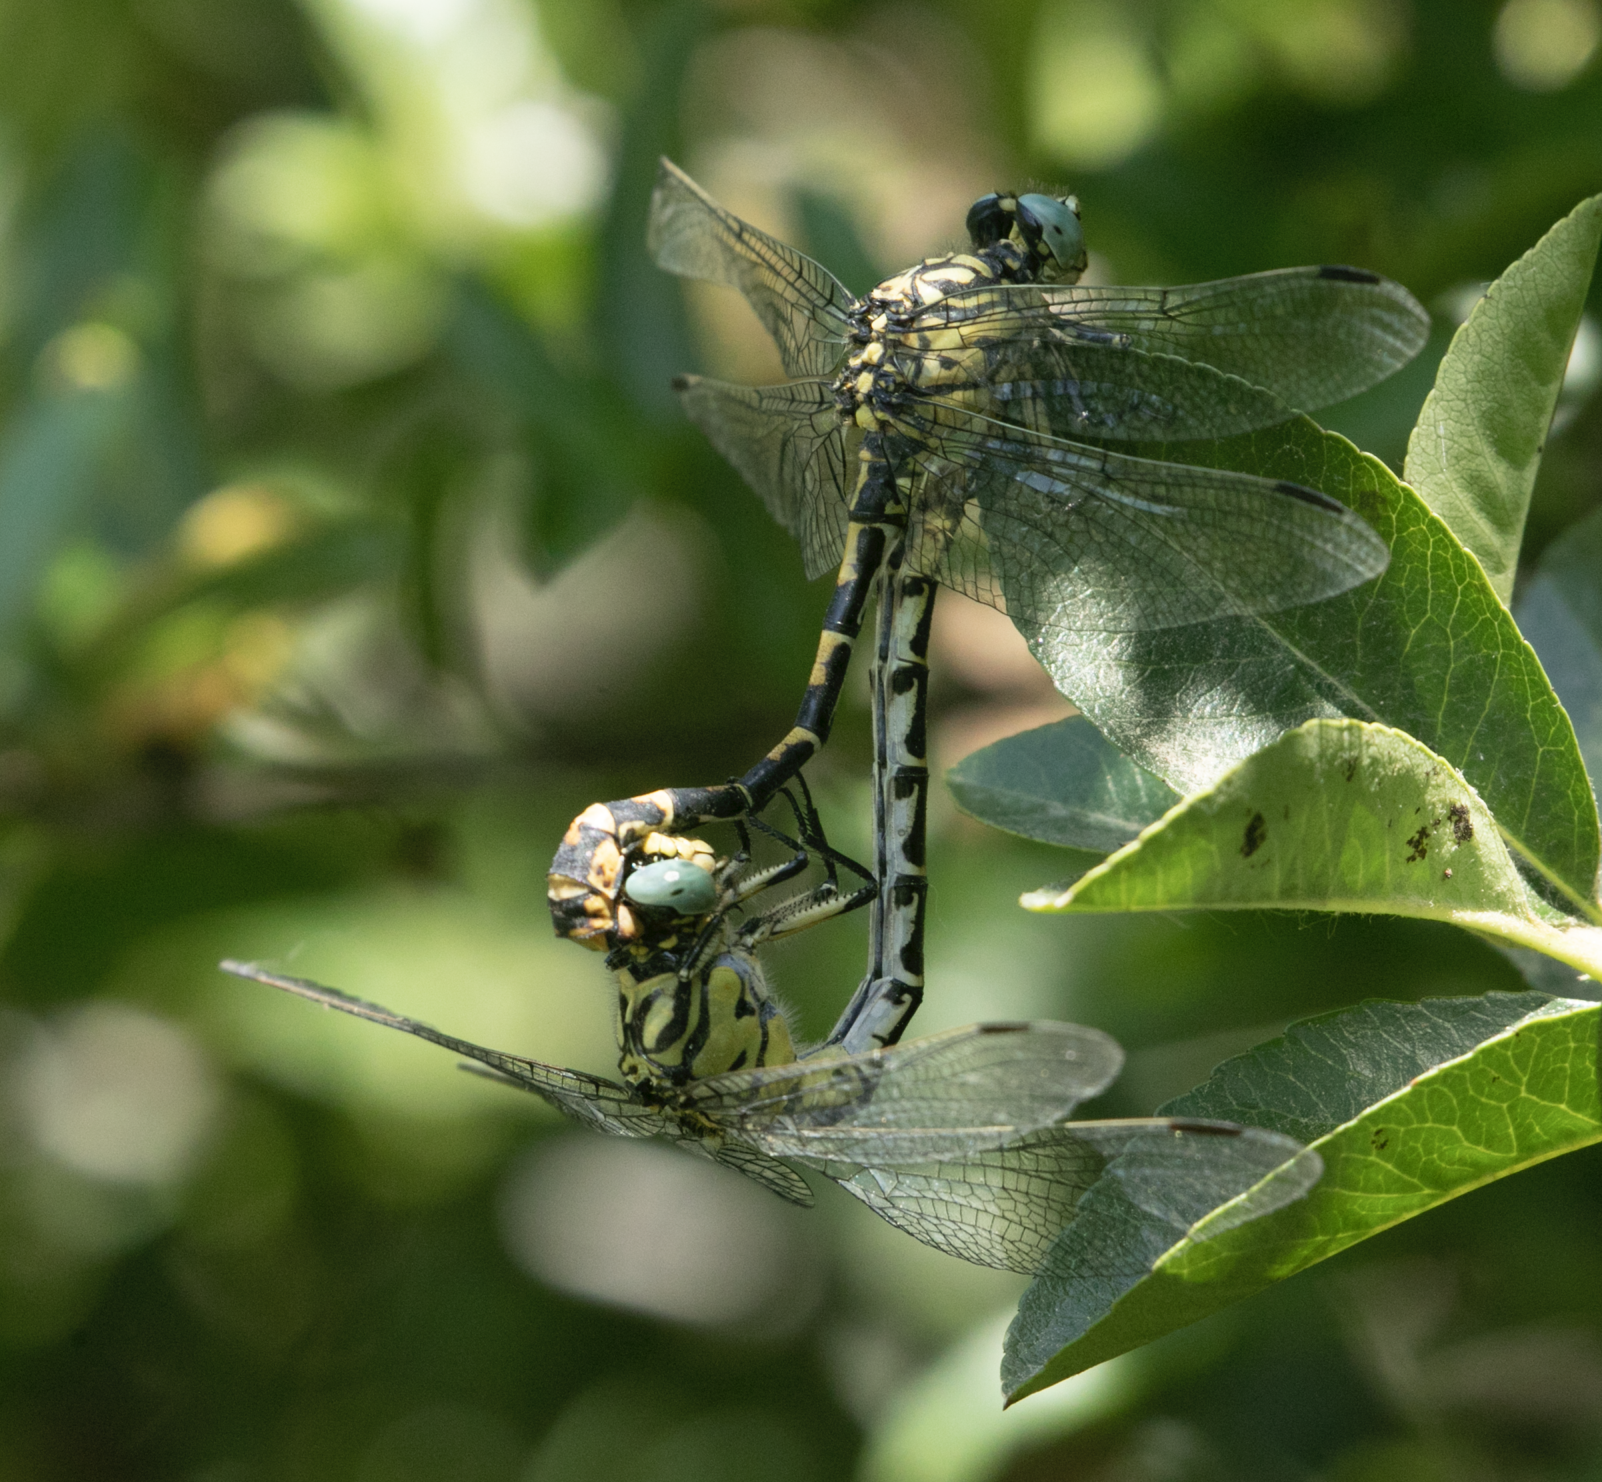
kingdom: Animalia
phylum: Arthropoda
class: Insecta
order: Odonata
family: Gomphidae
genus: Onychogomphus
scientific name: Onychogomphus forcipatus
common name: Small pincertail
